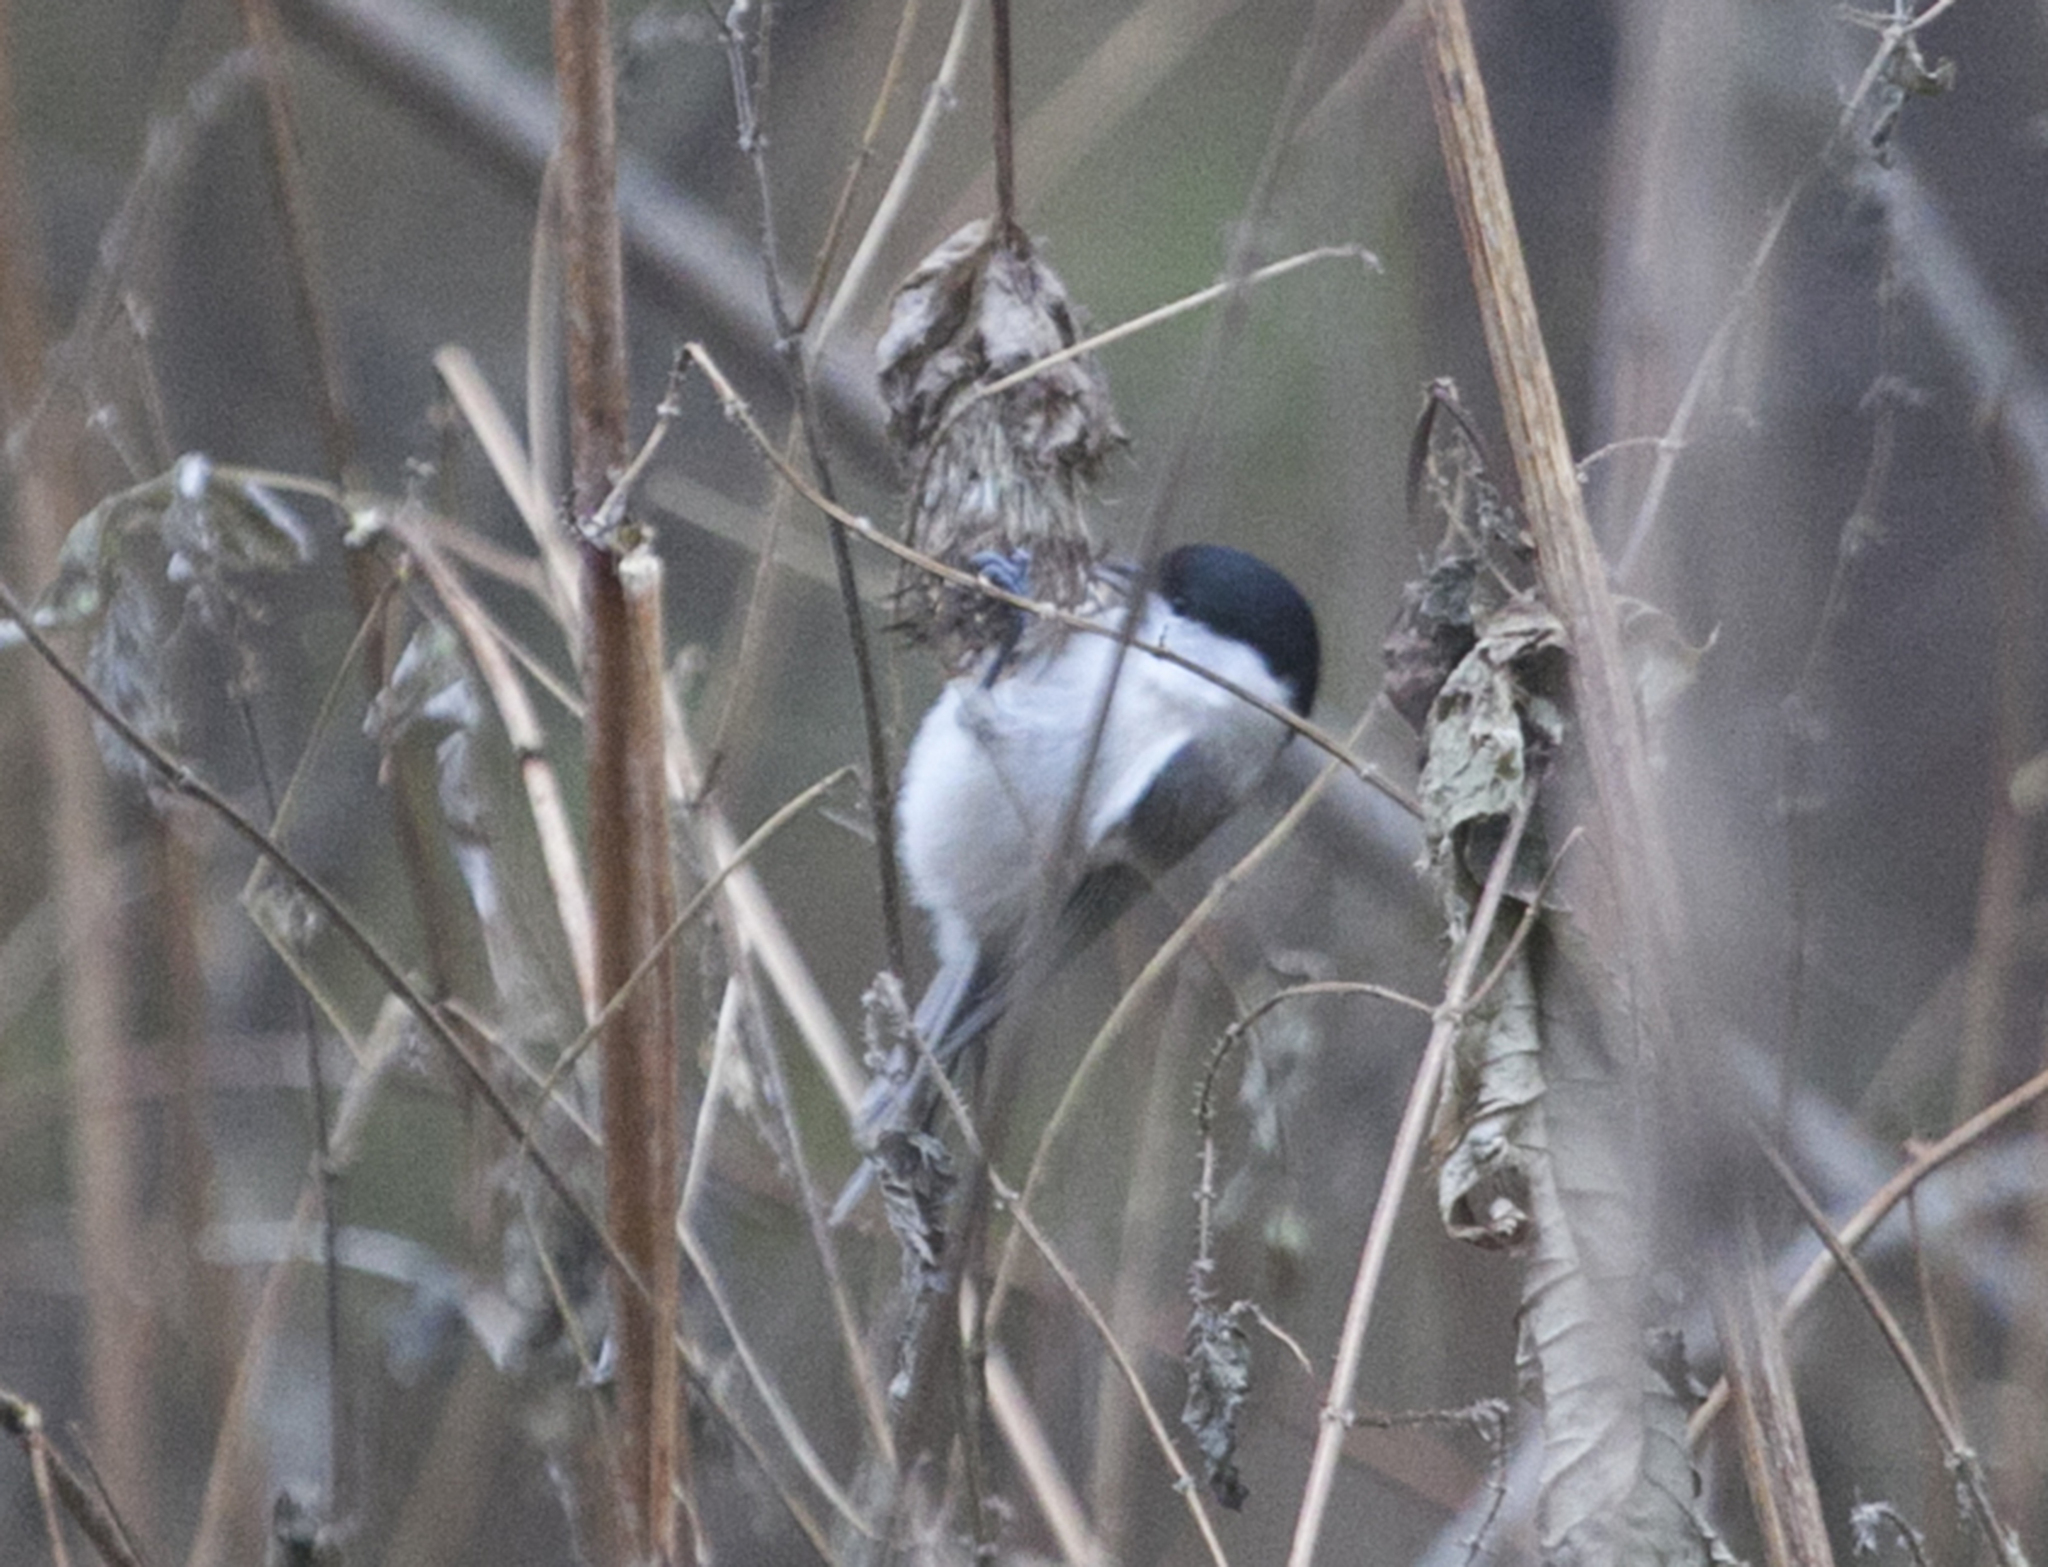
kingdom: Animalia
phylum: Chordata
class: Aves
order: Passeriformes
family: Paridae
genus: Poecile
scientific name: Poecile montanus
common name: Willow tit
